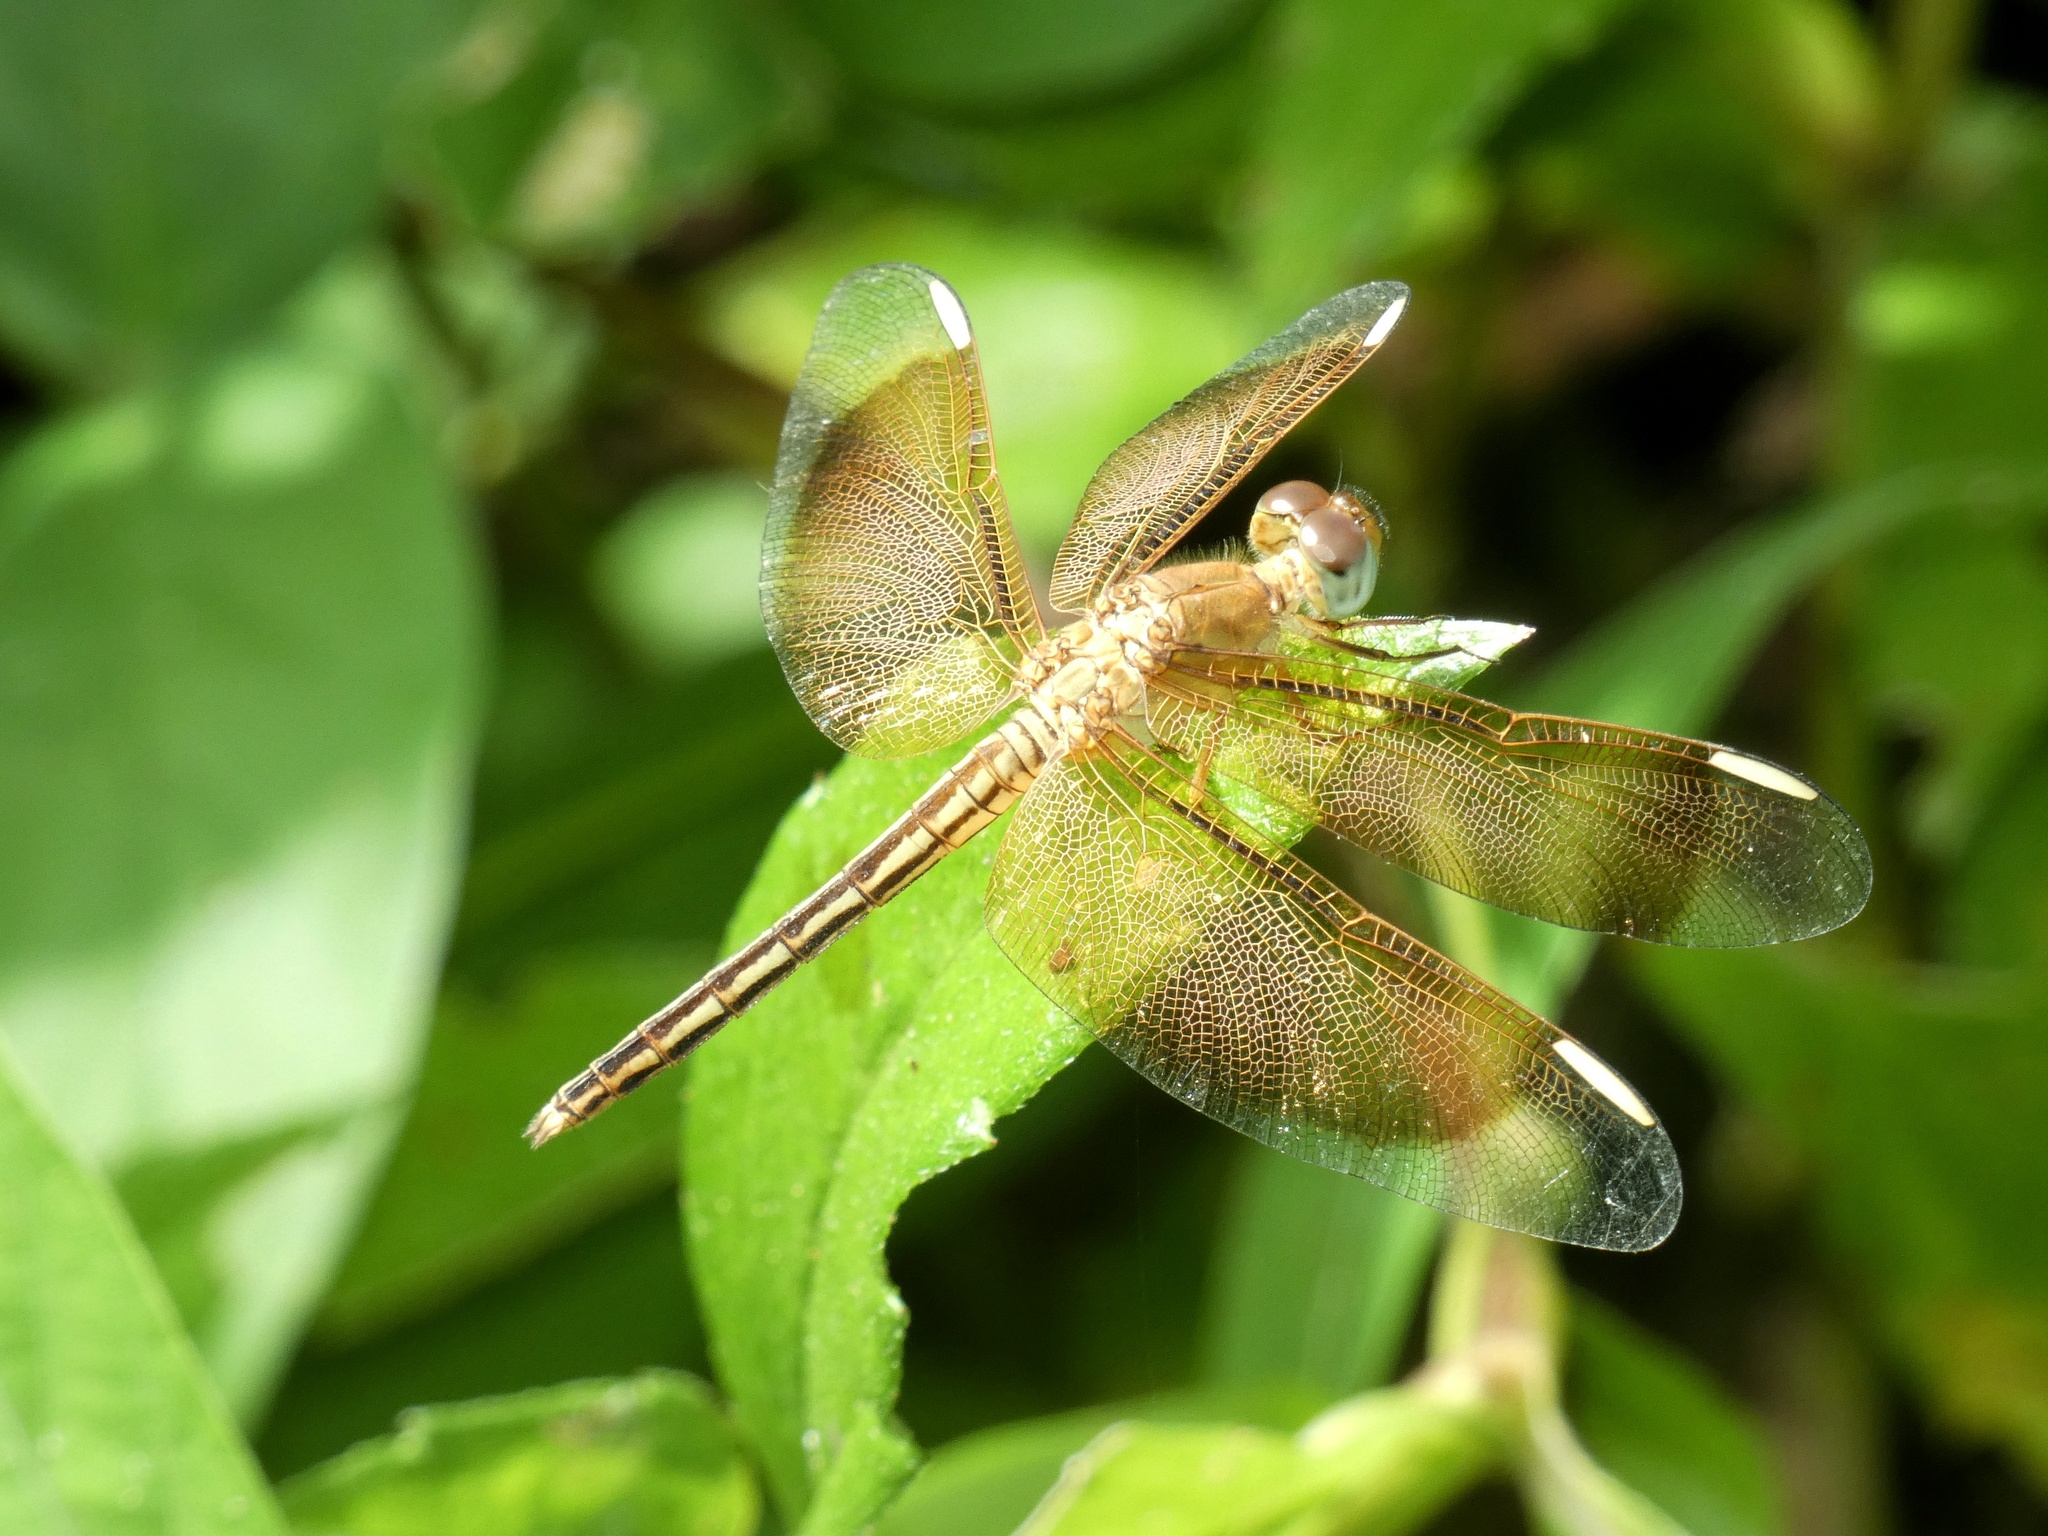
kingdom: Animalia
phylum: Arthropoda
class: Insecta
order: Odonata
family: Libellulidae
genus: Neurothemis
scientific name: Neurothemis stigmatizans
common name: Painted grasshawk
